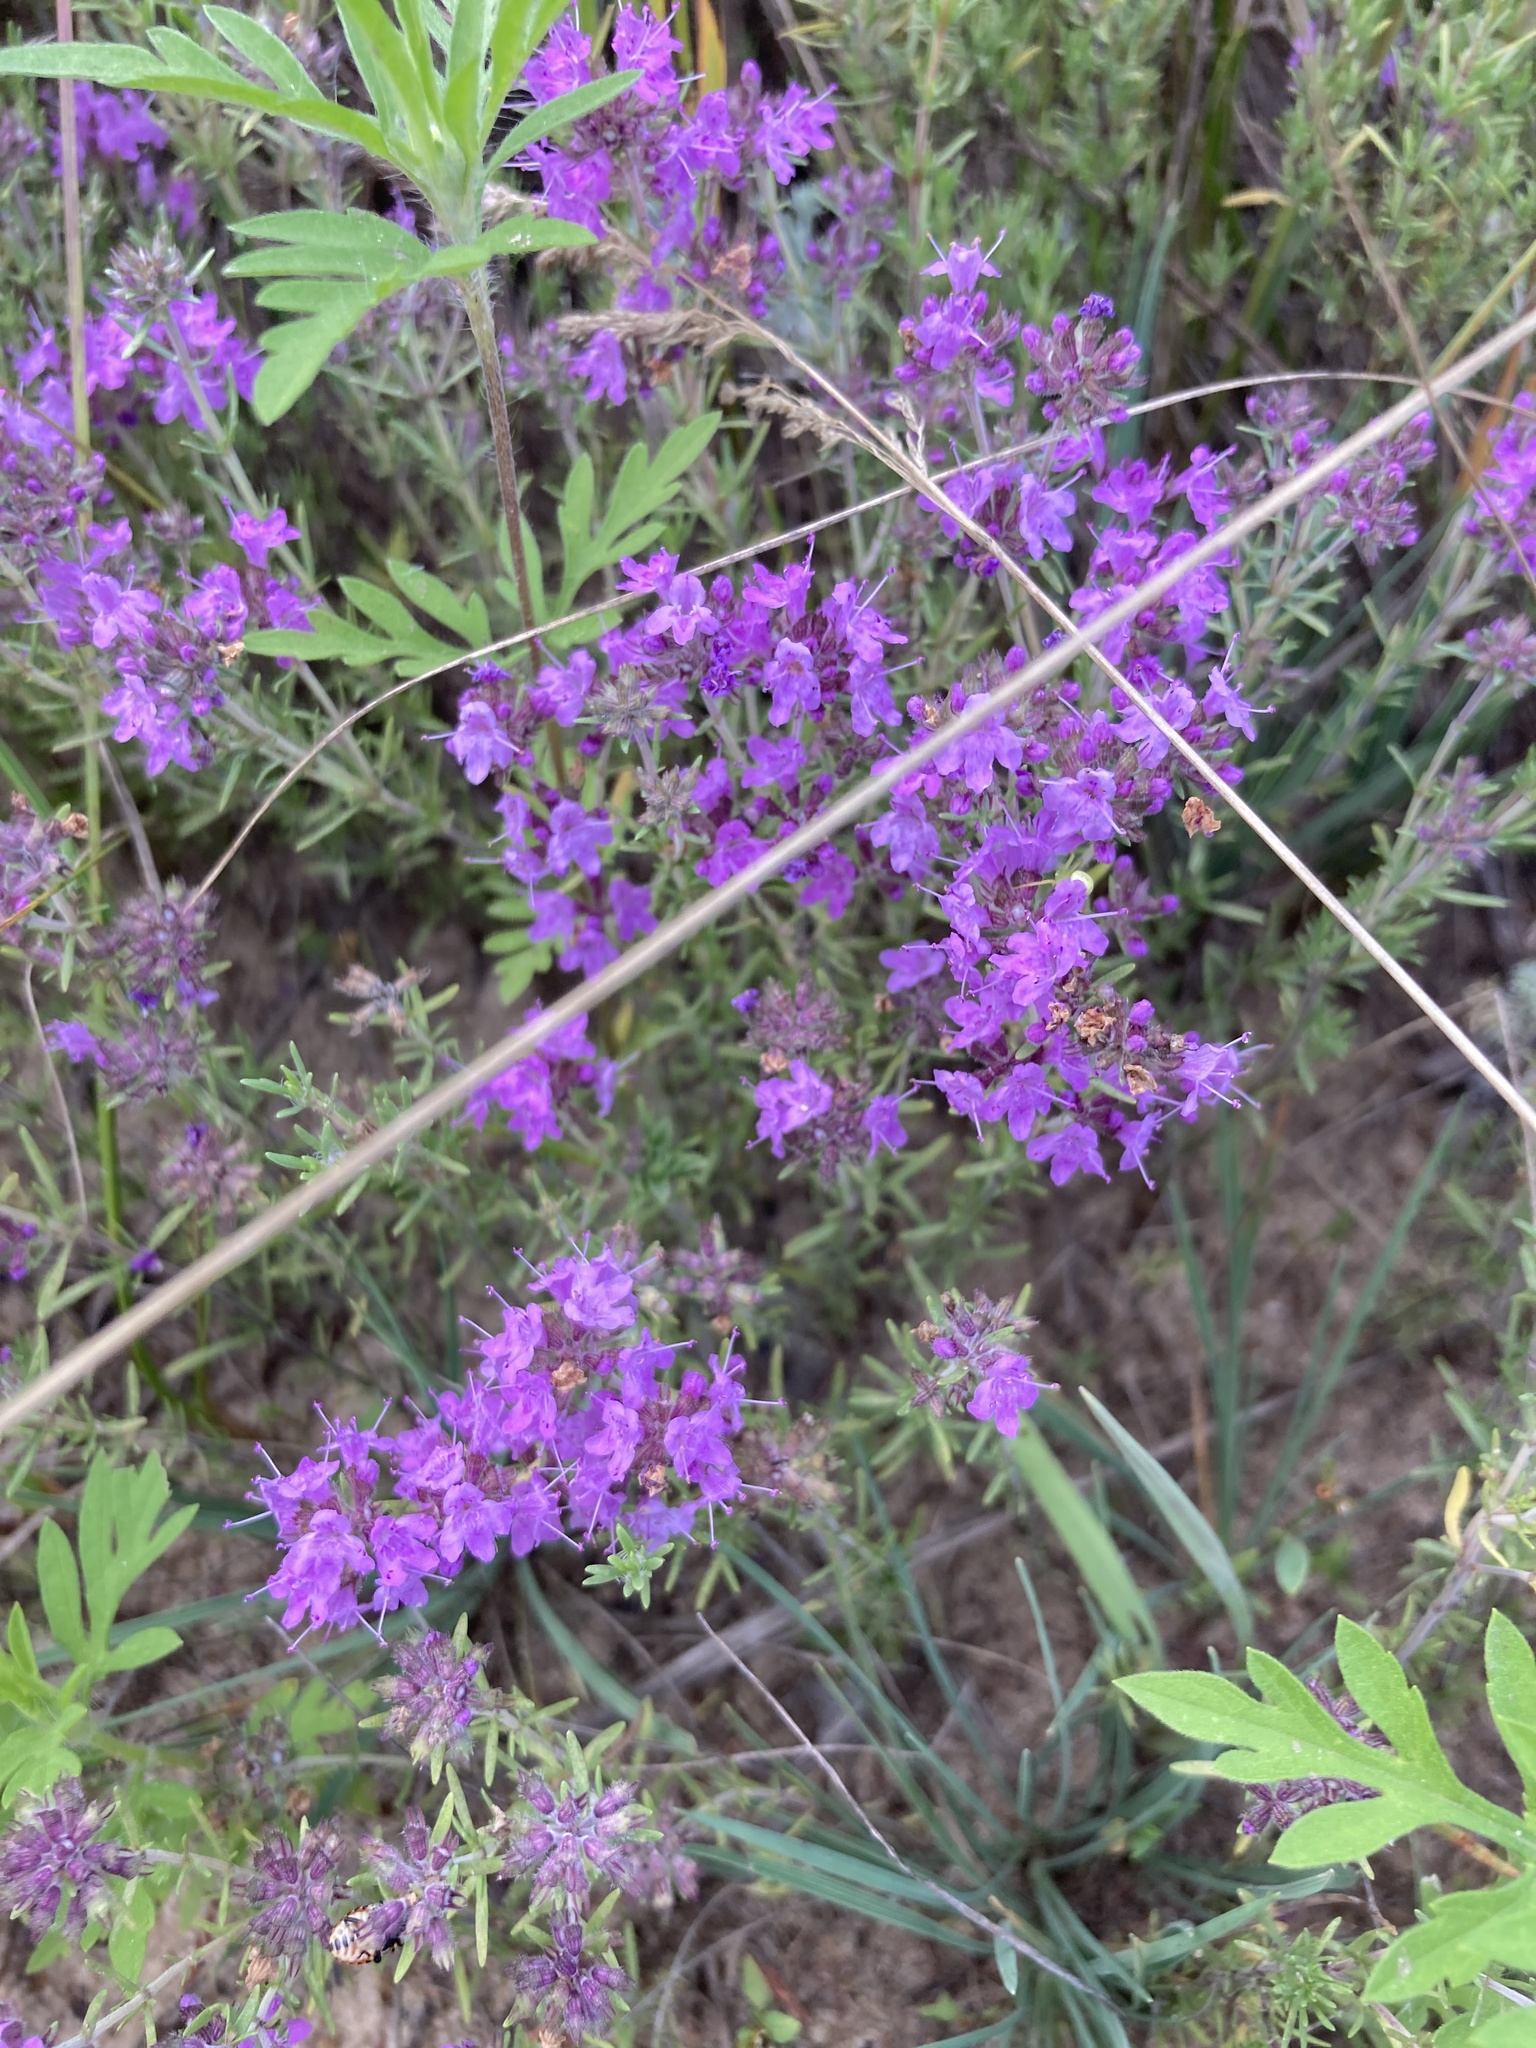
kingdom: Plantae
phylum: Tracheophyta
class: Magnoliopsida
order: Lamiales
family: Lamiaceae
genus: Thymus
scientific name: Thymus pallasianus
